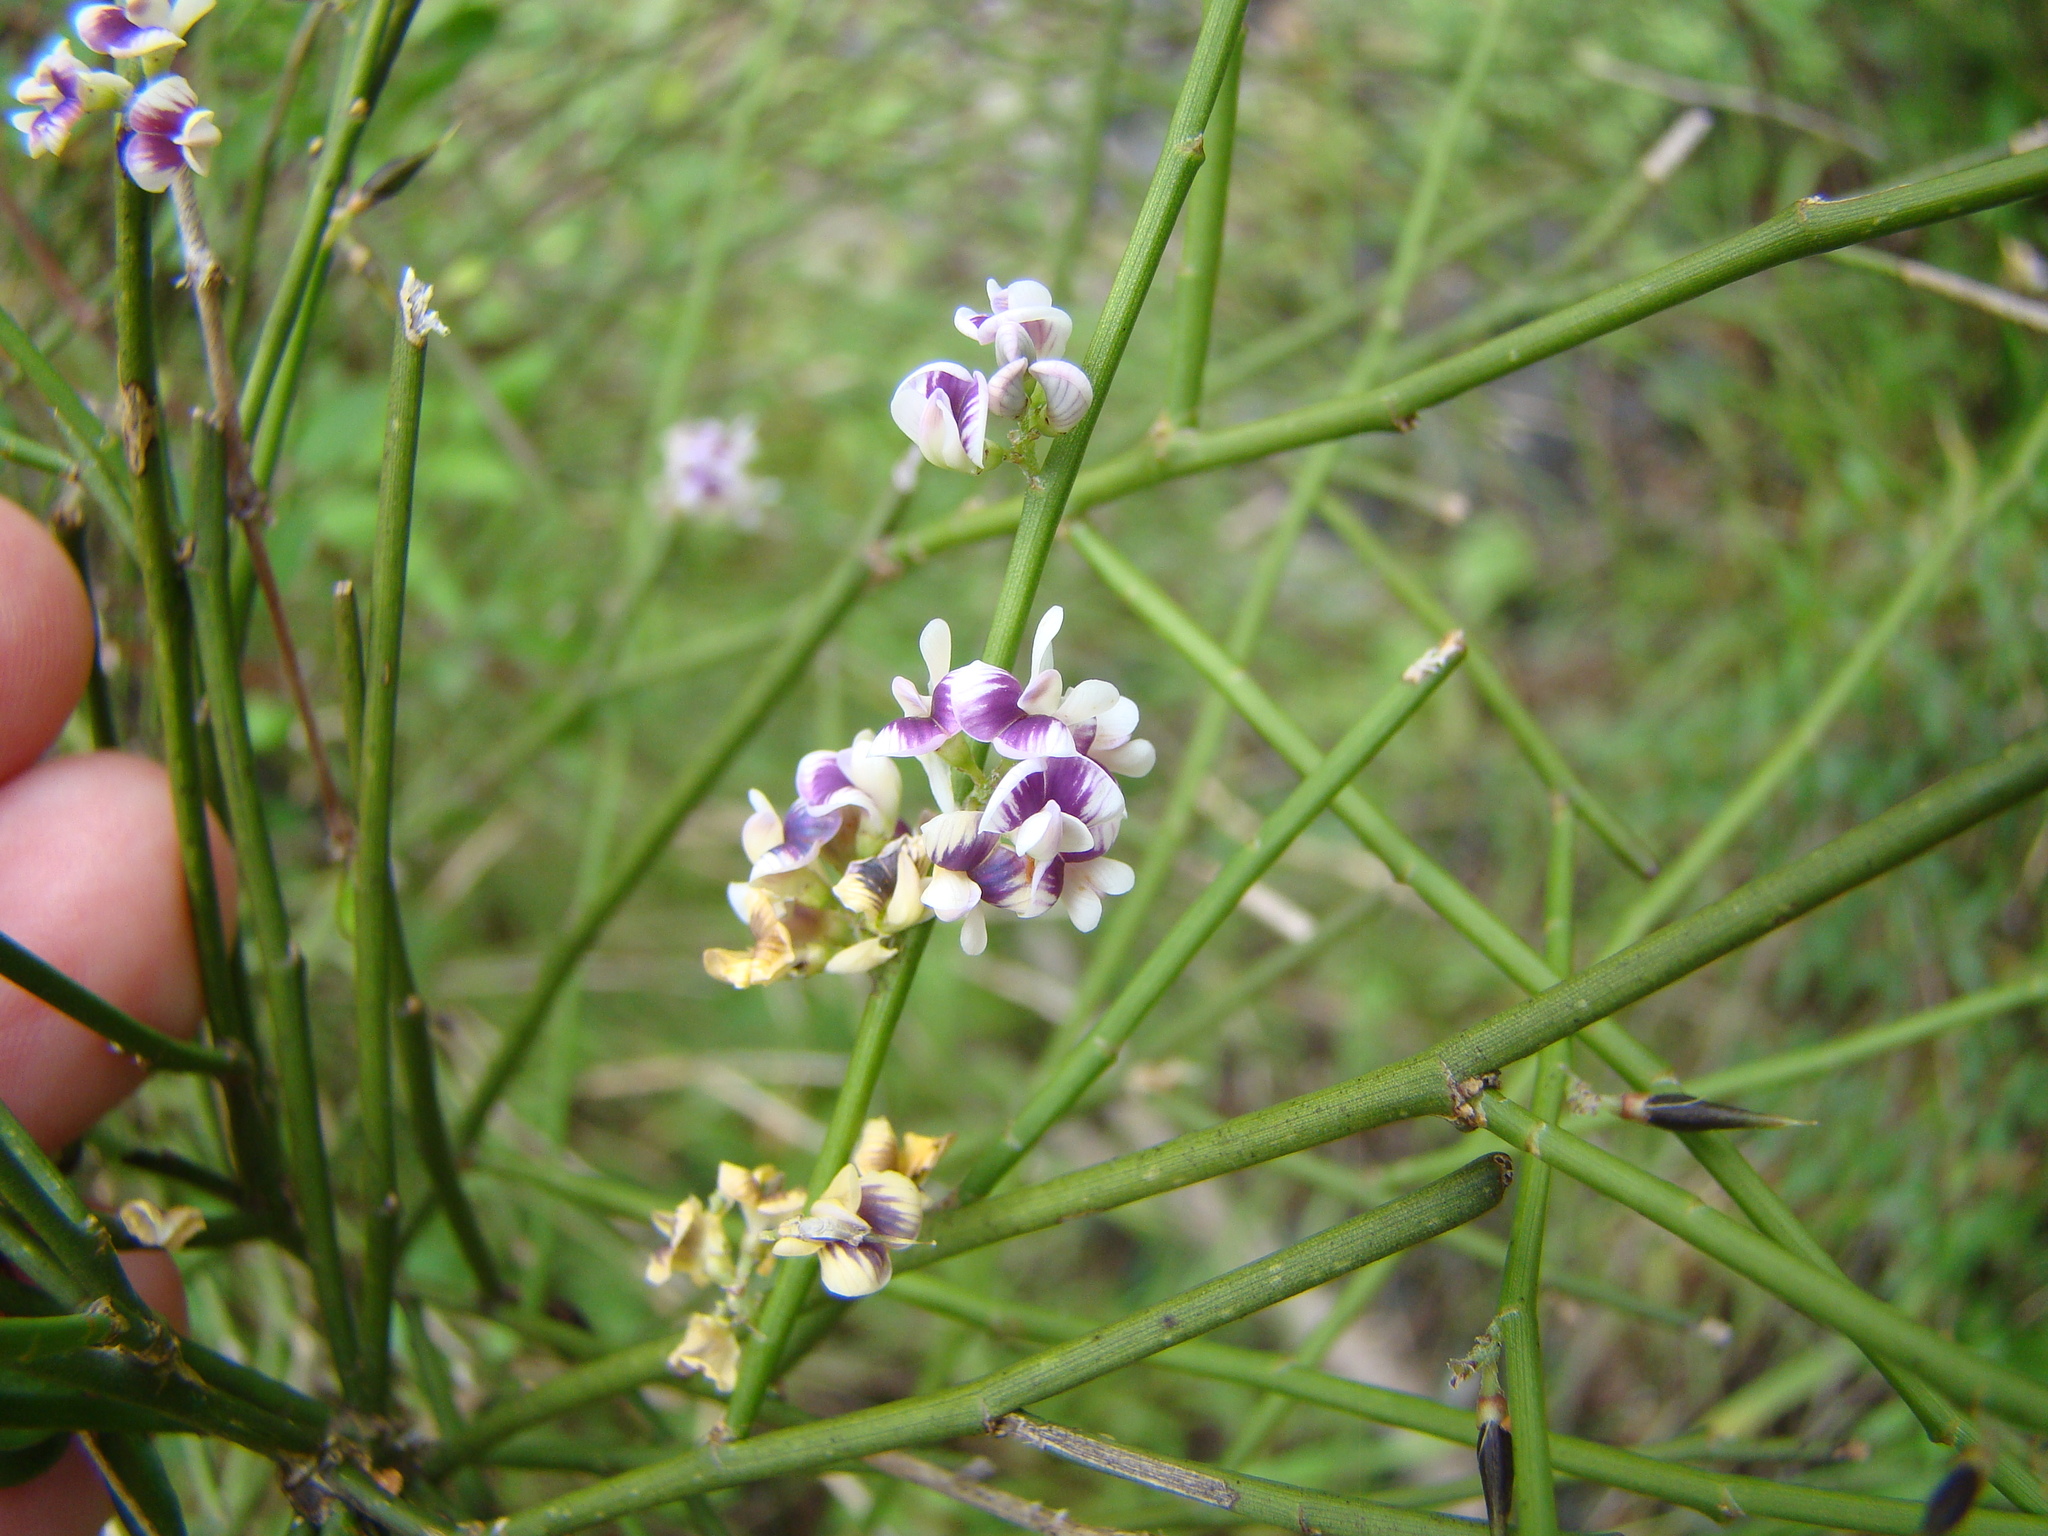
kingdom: Plantae
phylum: Tracheophyta
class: Magnoliopsida
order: Fabales
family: Fabaceae
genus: Carmichaelia
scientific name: Carmichaelia australis
